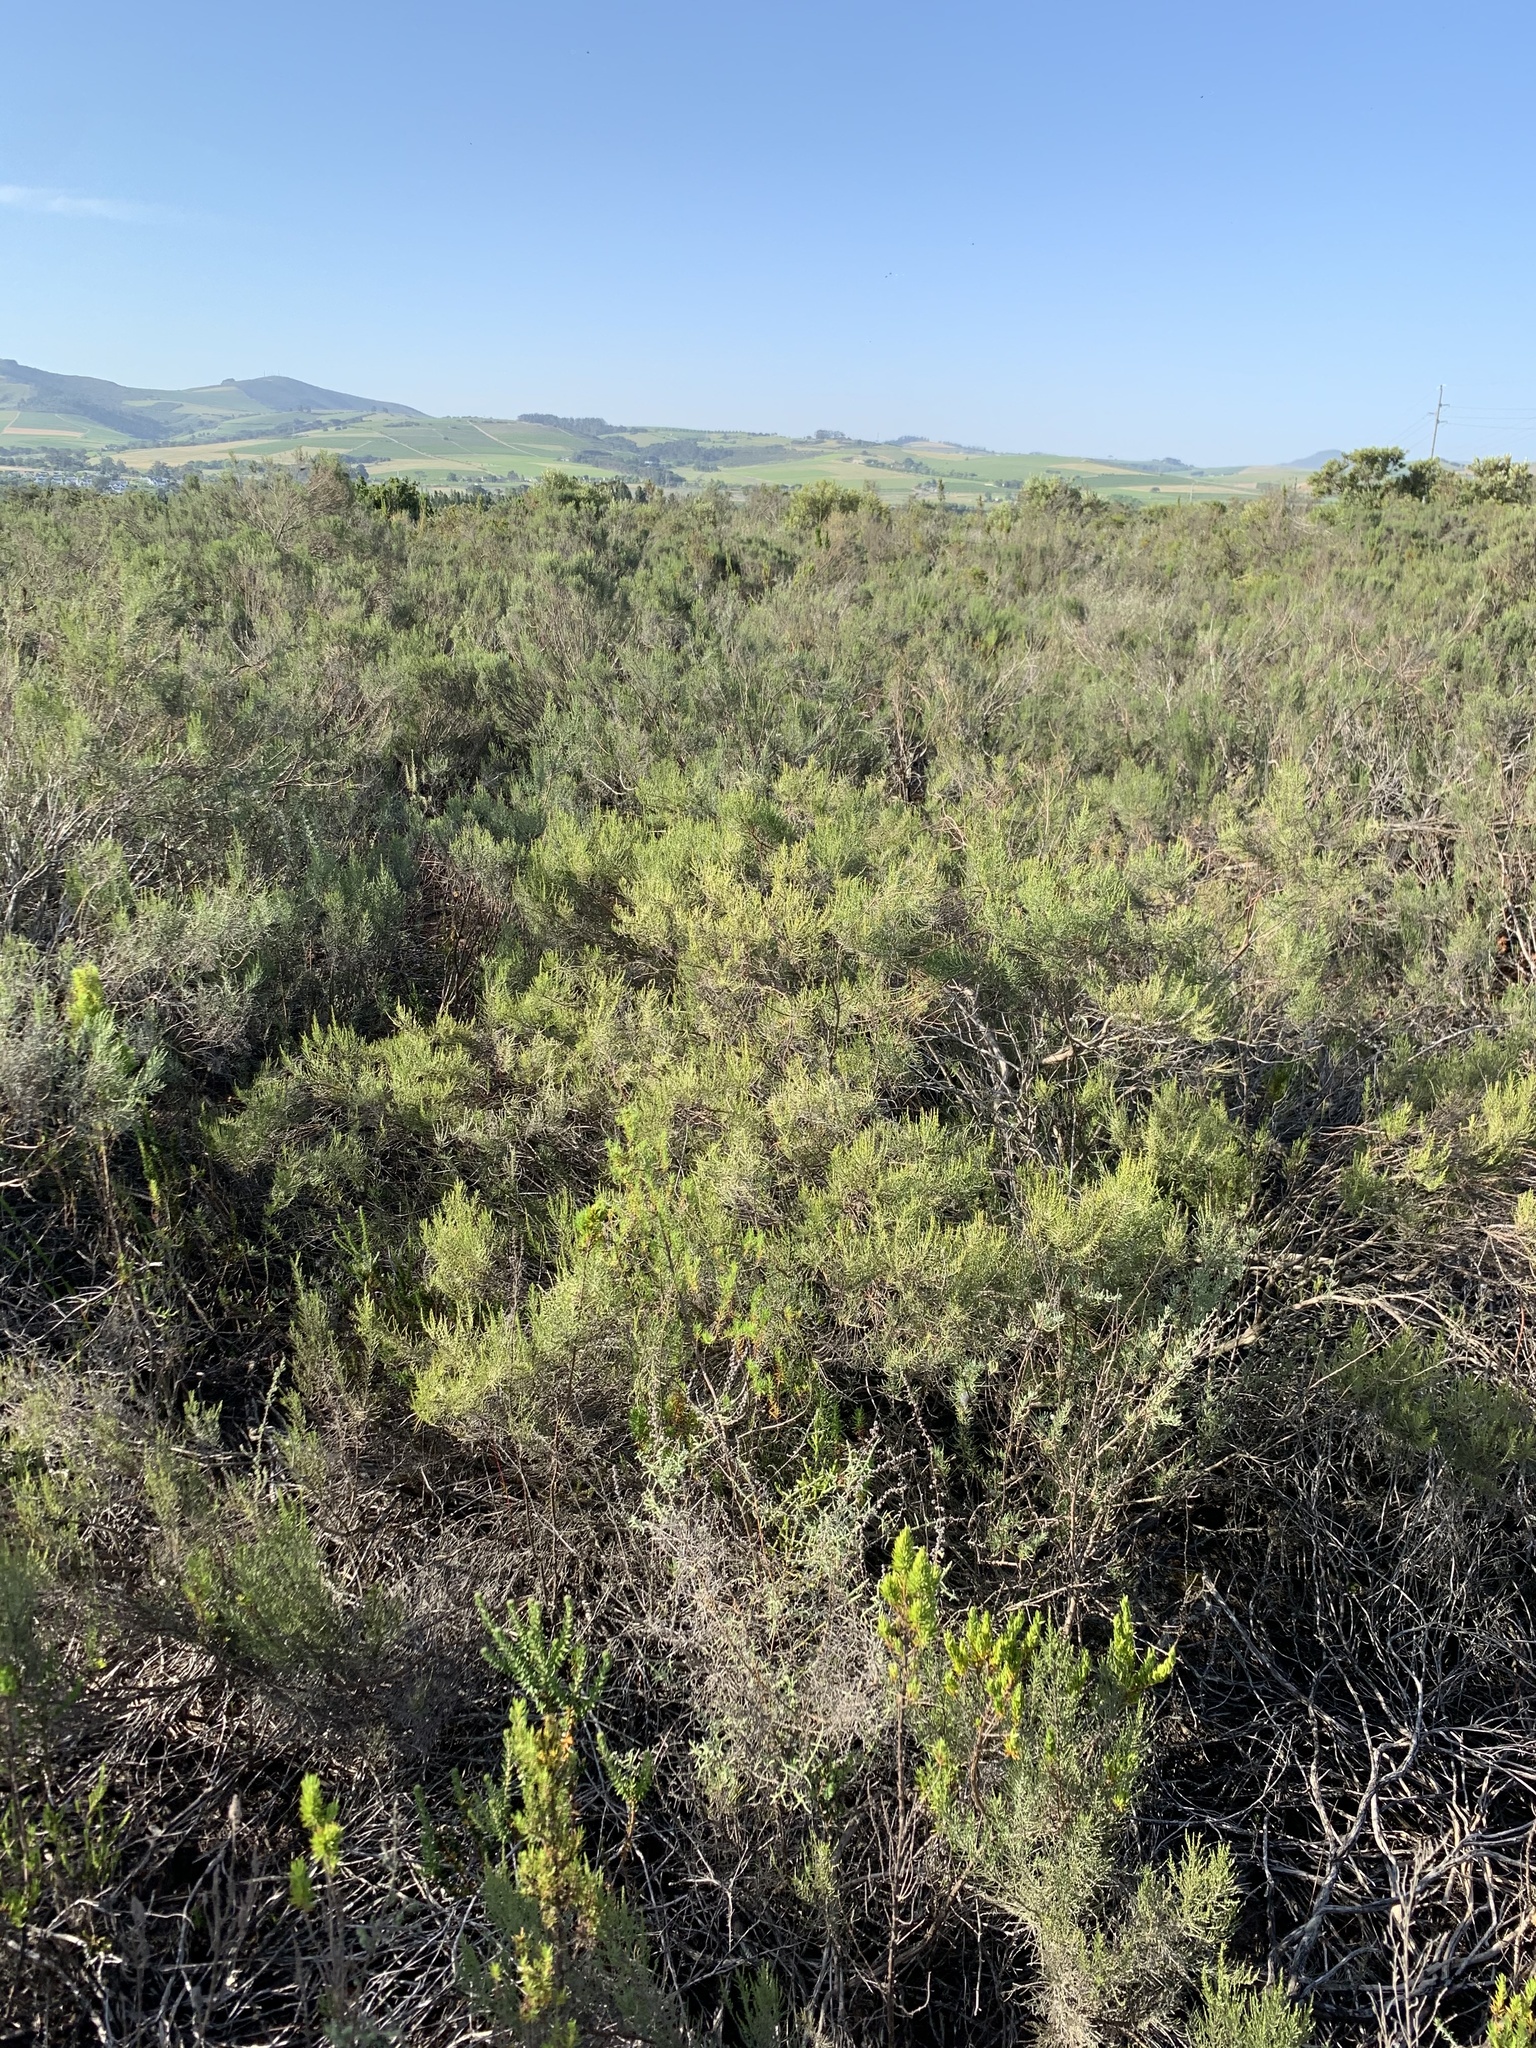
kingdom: Plantae
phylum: Tracheophyta
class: Magnoliopsida
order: Asterales
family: Asteraceae
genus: Dicerothamnus
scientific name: Dicerothamnus rhinocerotis
